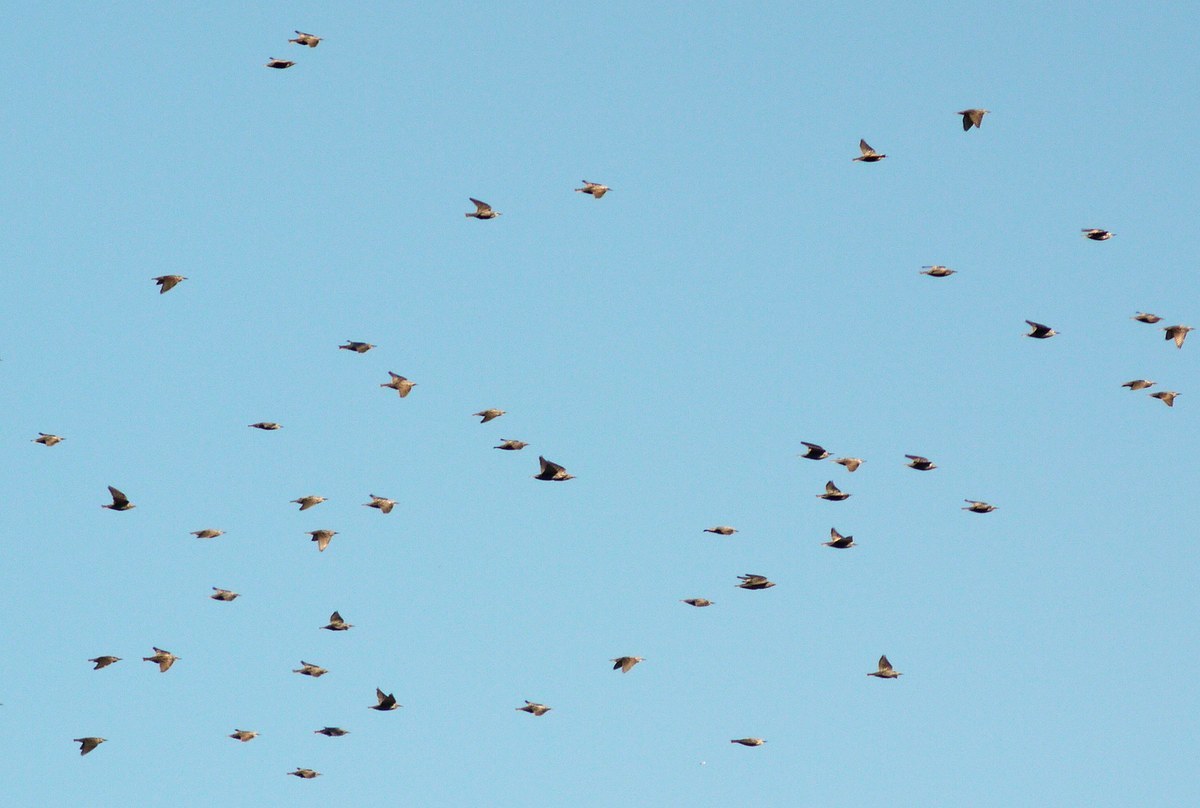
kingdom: Animalia
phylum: Chordata
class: Aves
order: Passeriformes
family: Sturnidae
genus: Sturnus
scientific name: Sturnus vulgaris
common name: Common starling
